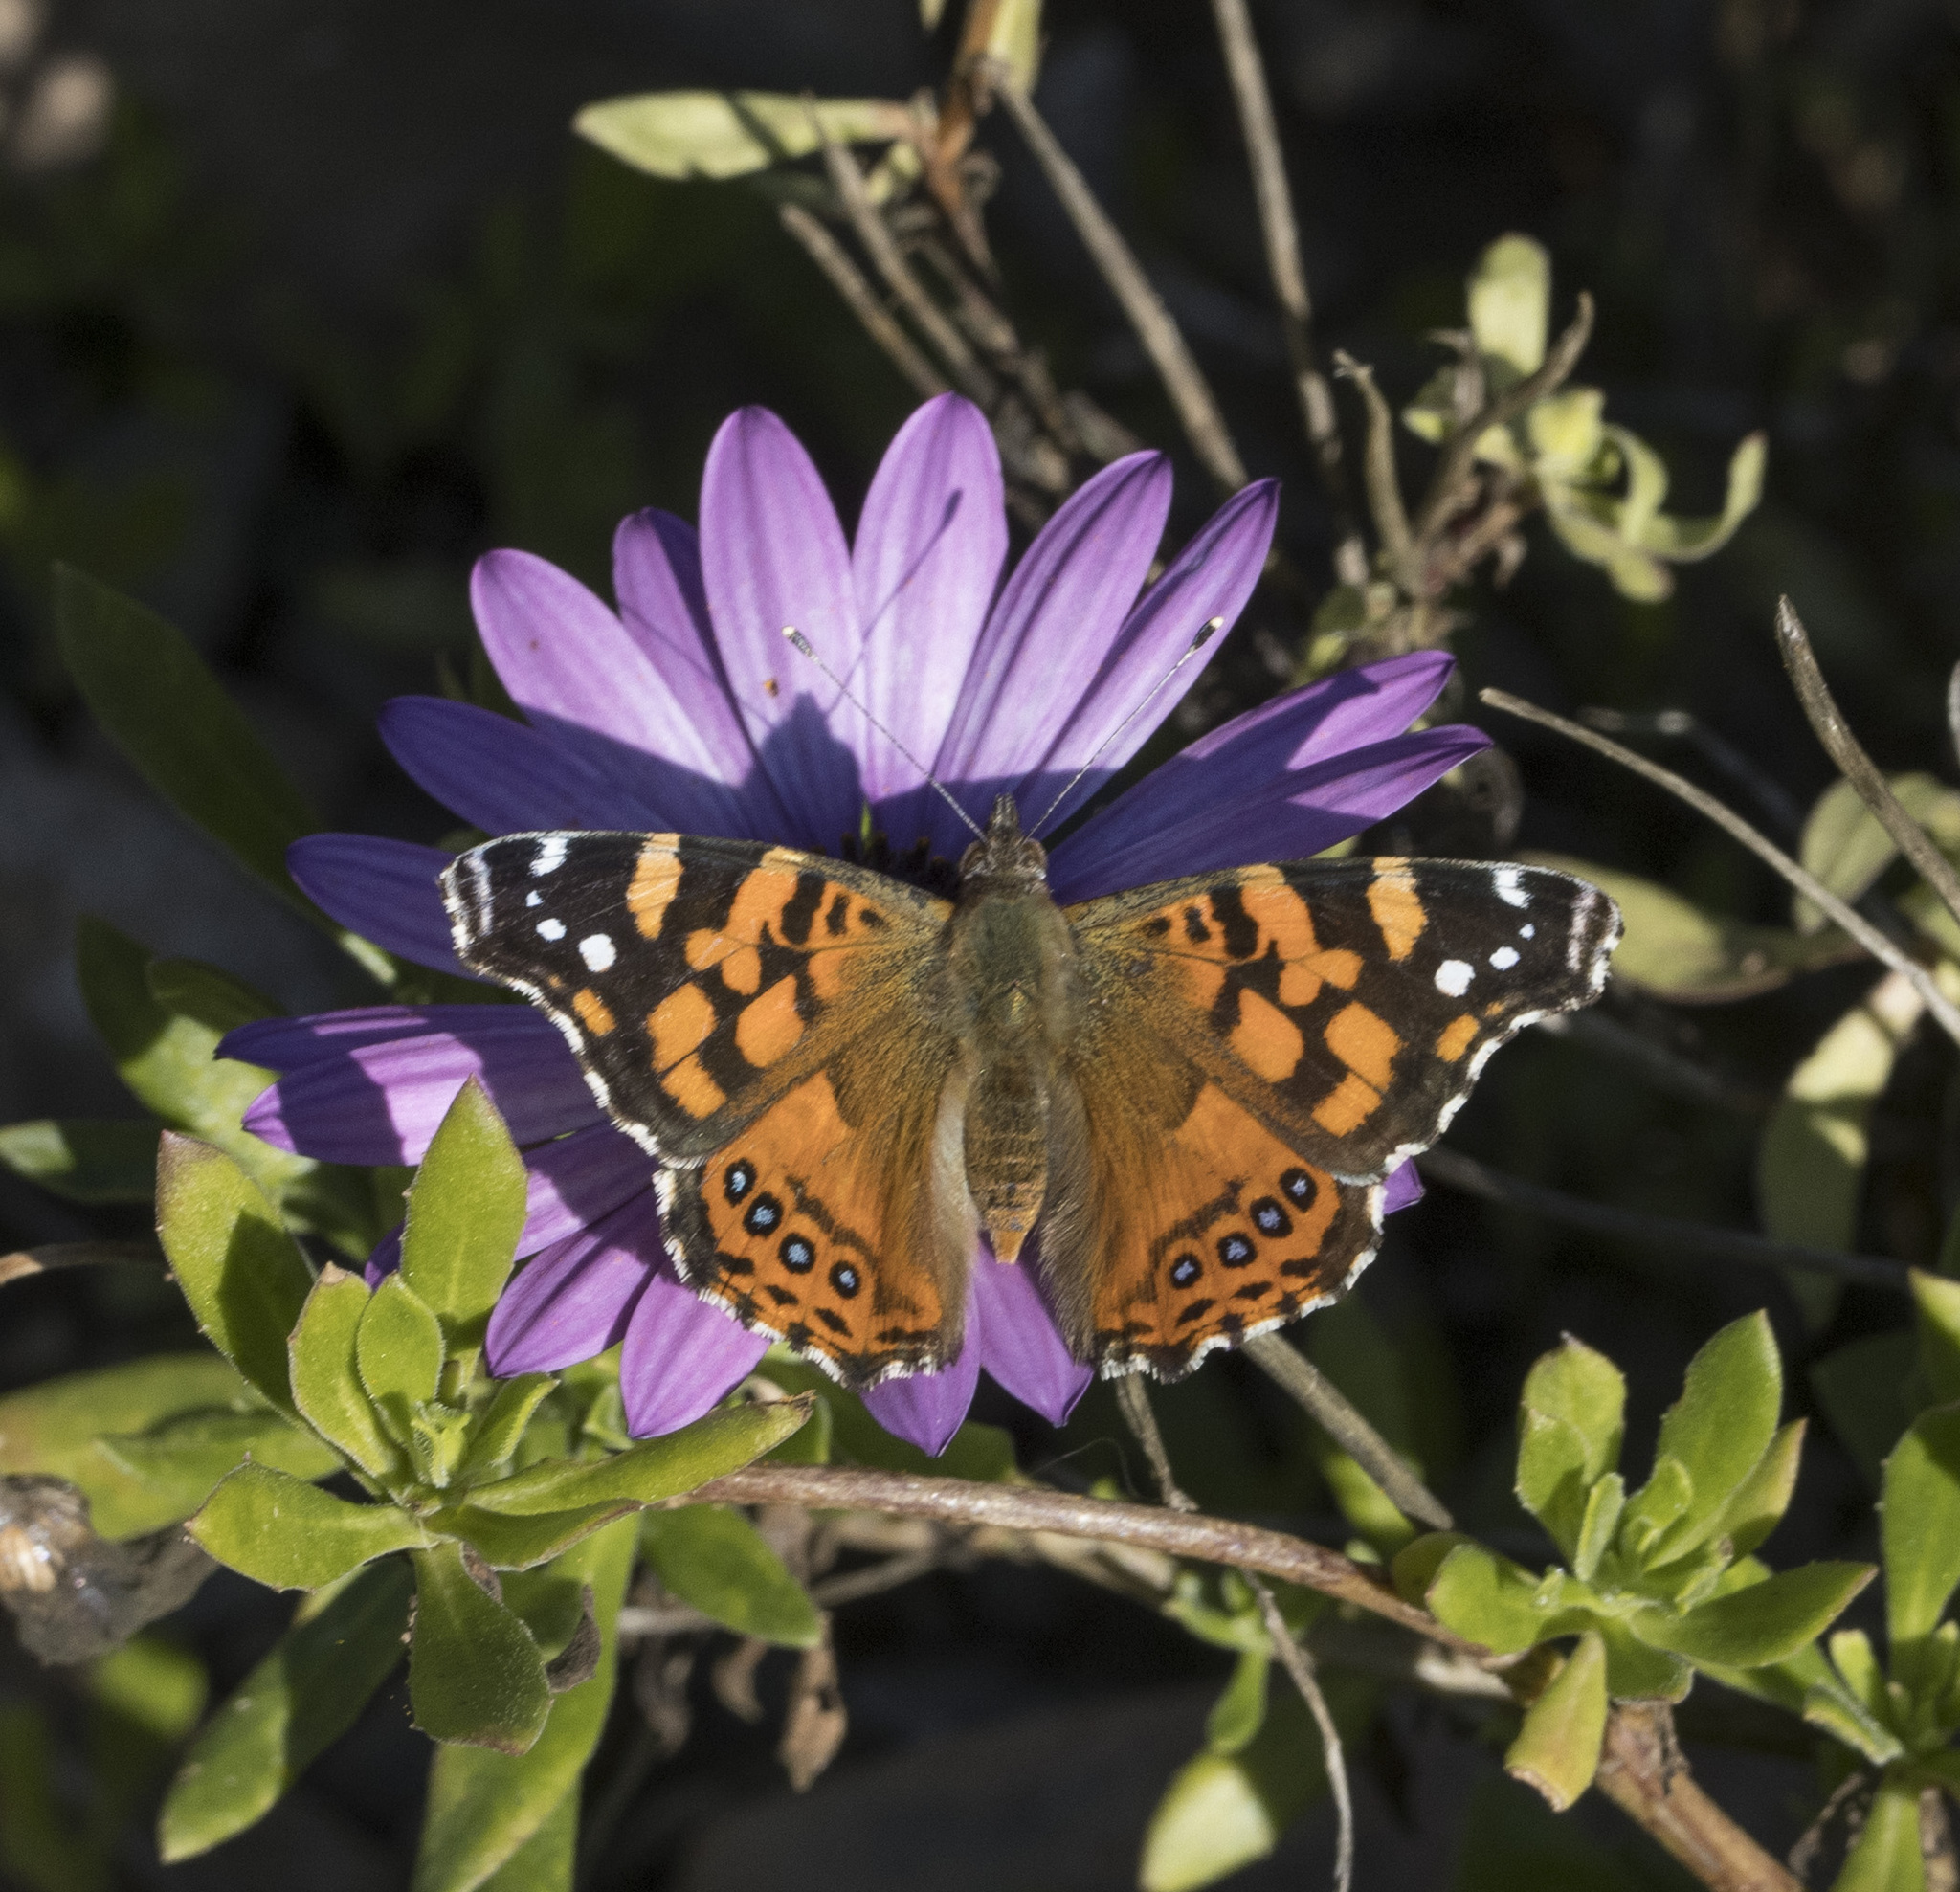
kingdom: Animalia
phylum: Arthropoda
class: Insecta
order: Lepidoptera
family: Nymphalidae
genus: Vanessa
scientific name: Vanessa carye
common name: Subtropical lady
